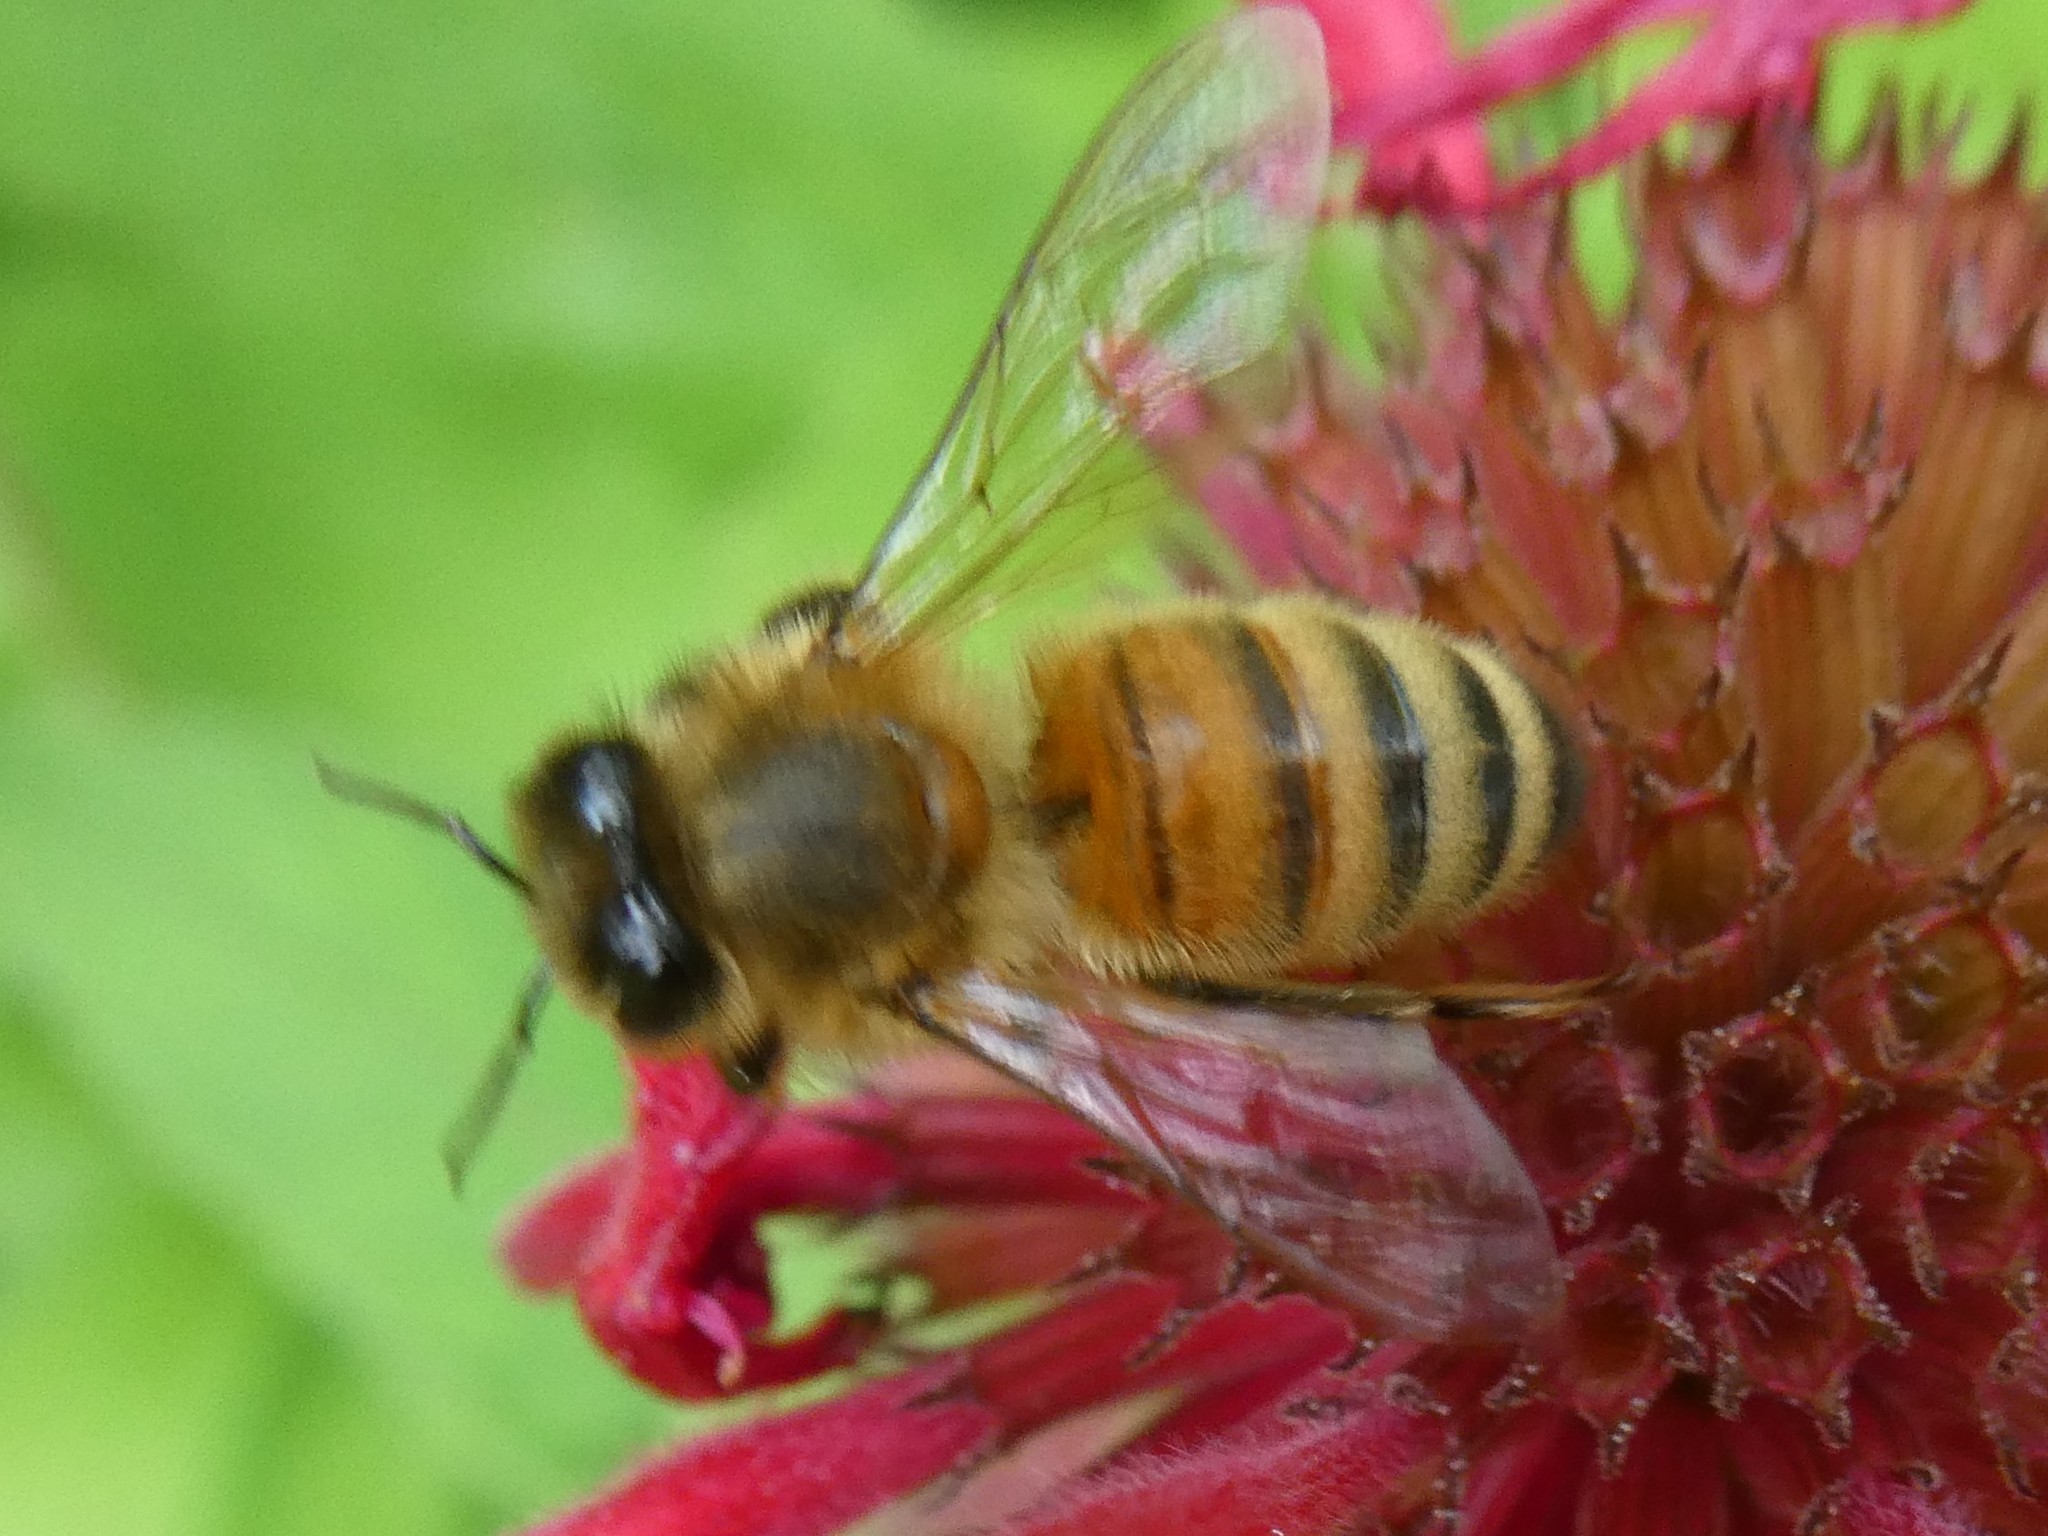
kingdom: Animalia
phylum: Arthropoda
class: Insecta
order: Hymenoptera
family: Apidae
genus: Apis
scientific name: Apis mellifera
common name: Honey bee
